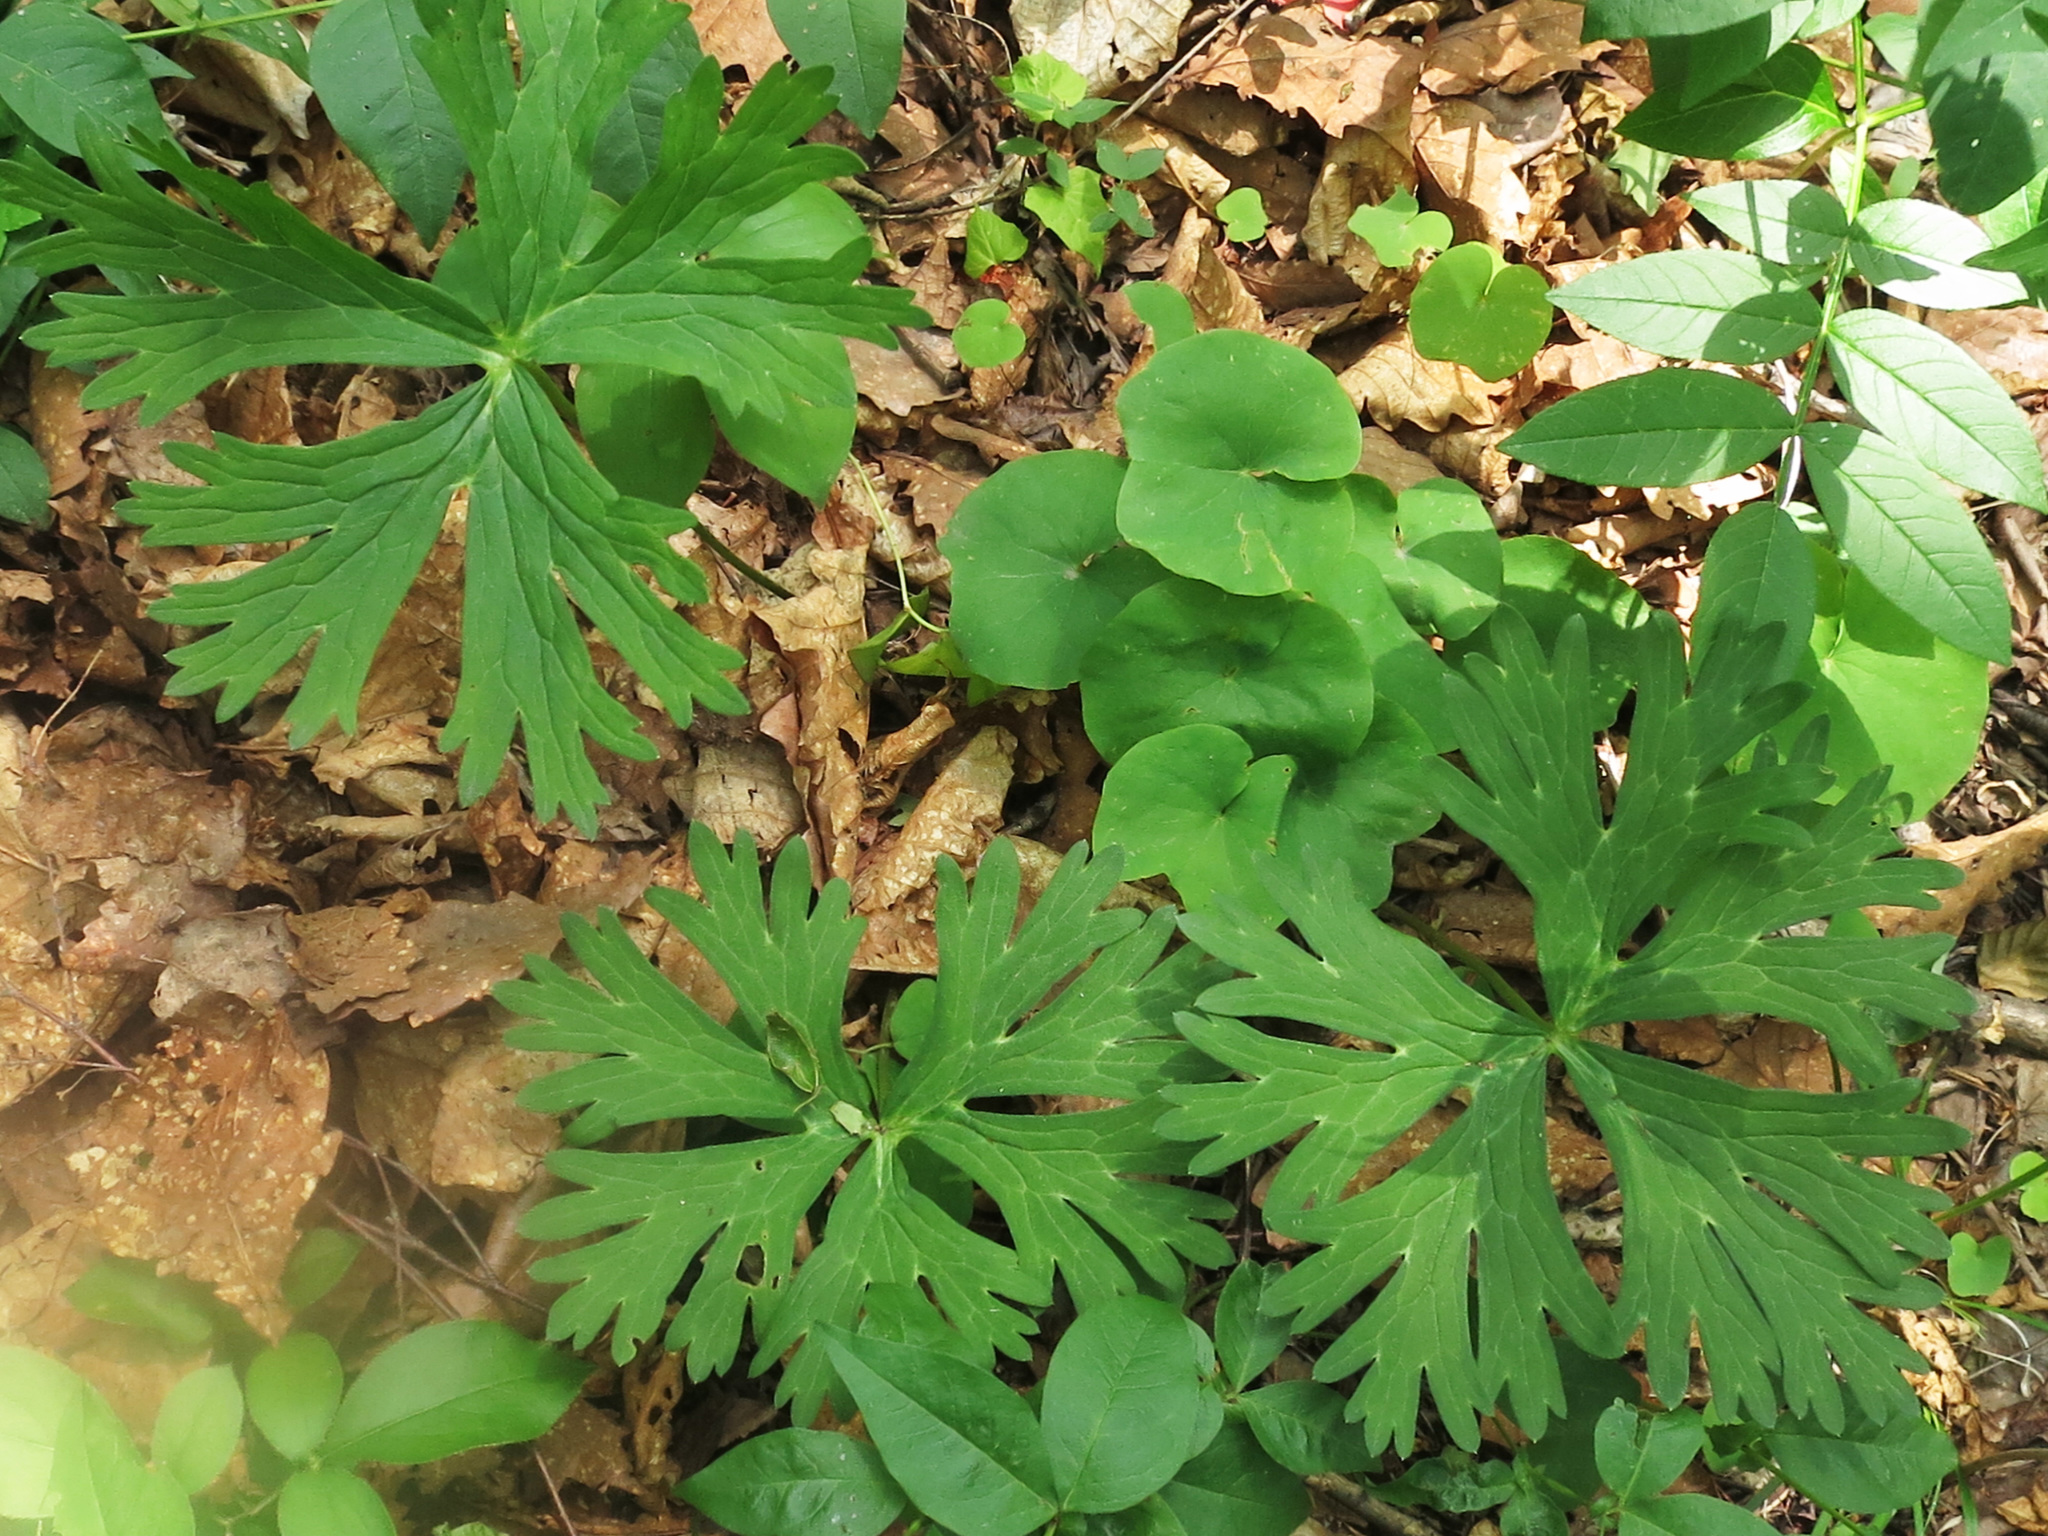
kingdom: Plantae
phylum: Tracheophyta
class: Magnoliopsida
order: Ranunculales
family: Ranunculaceae
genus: Aconitum
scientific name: Aconitum kirinense
